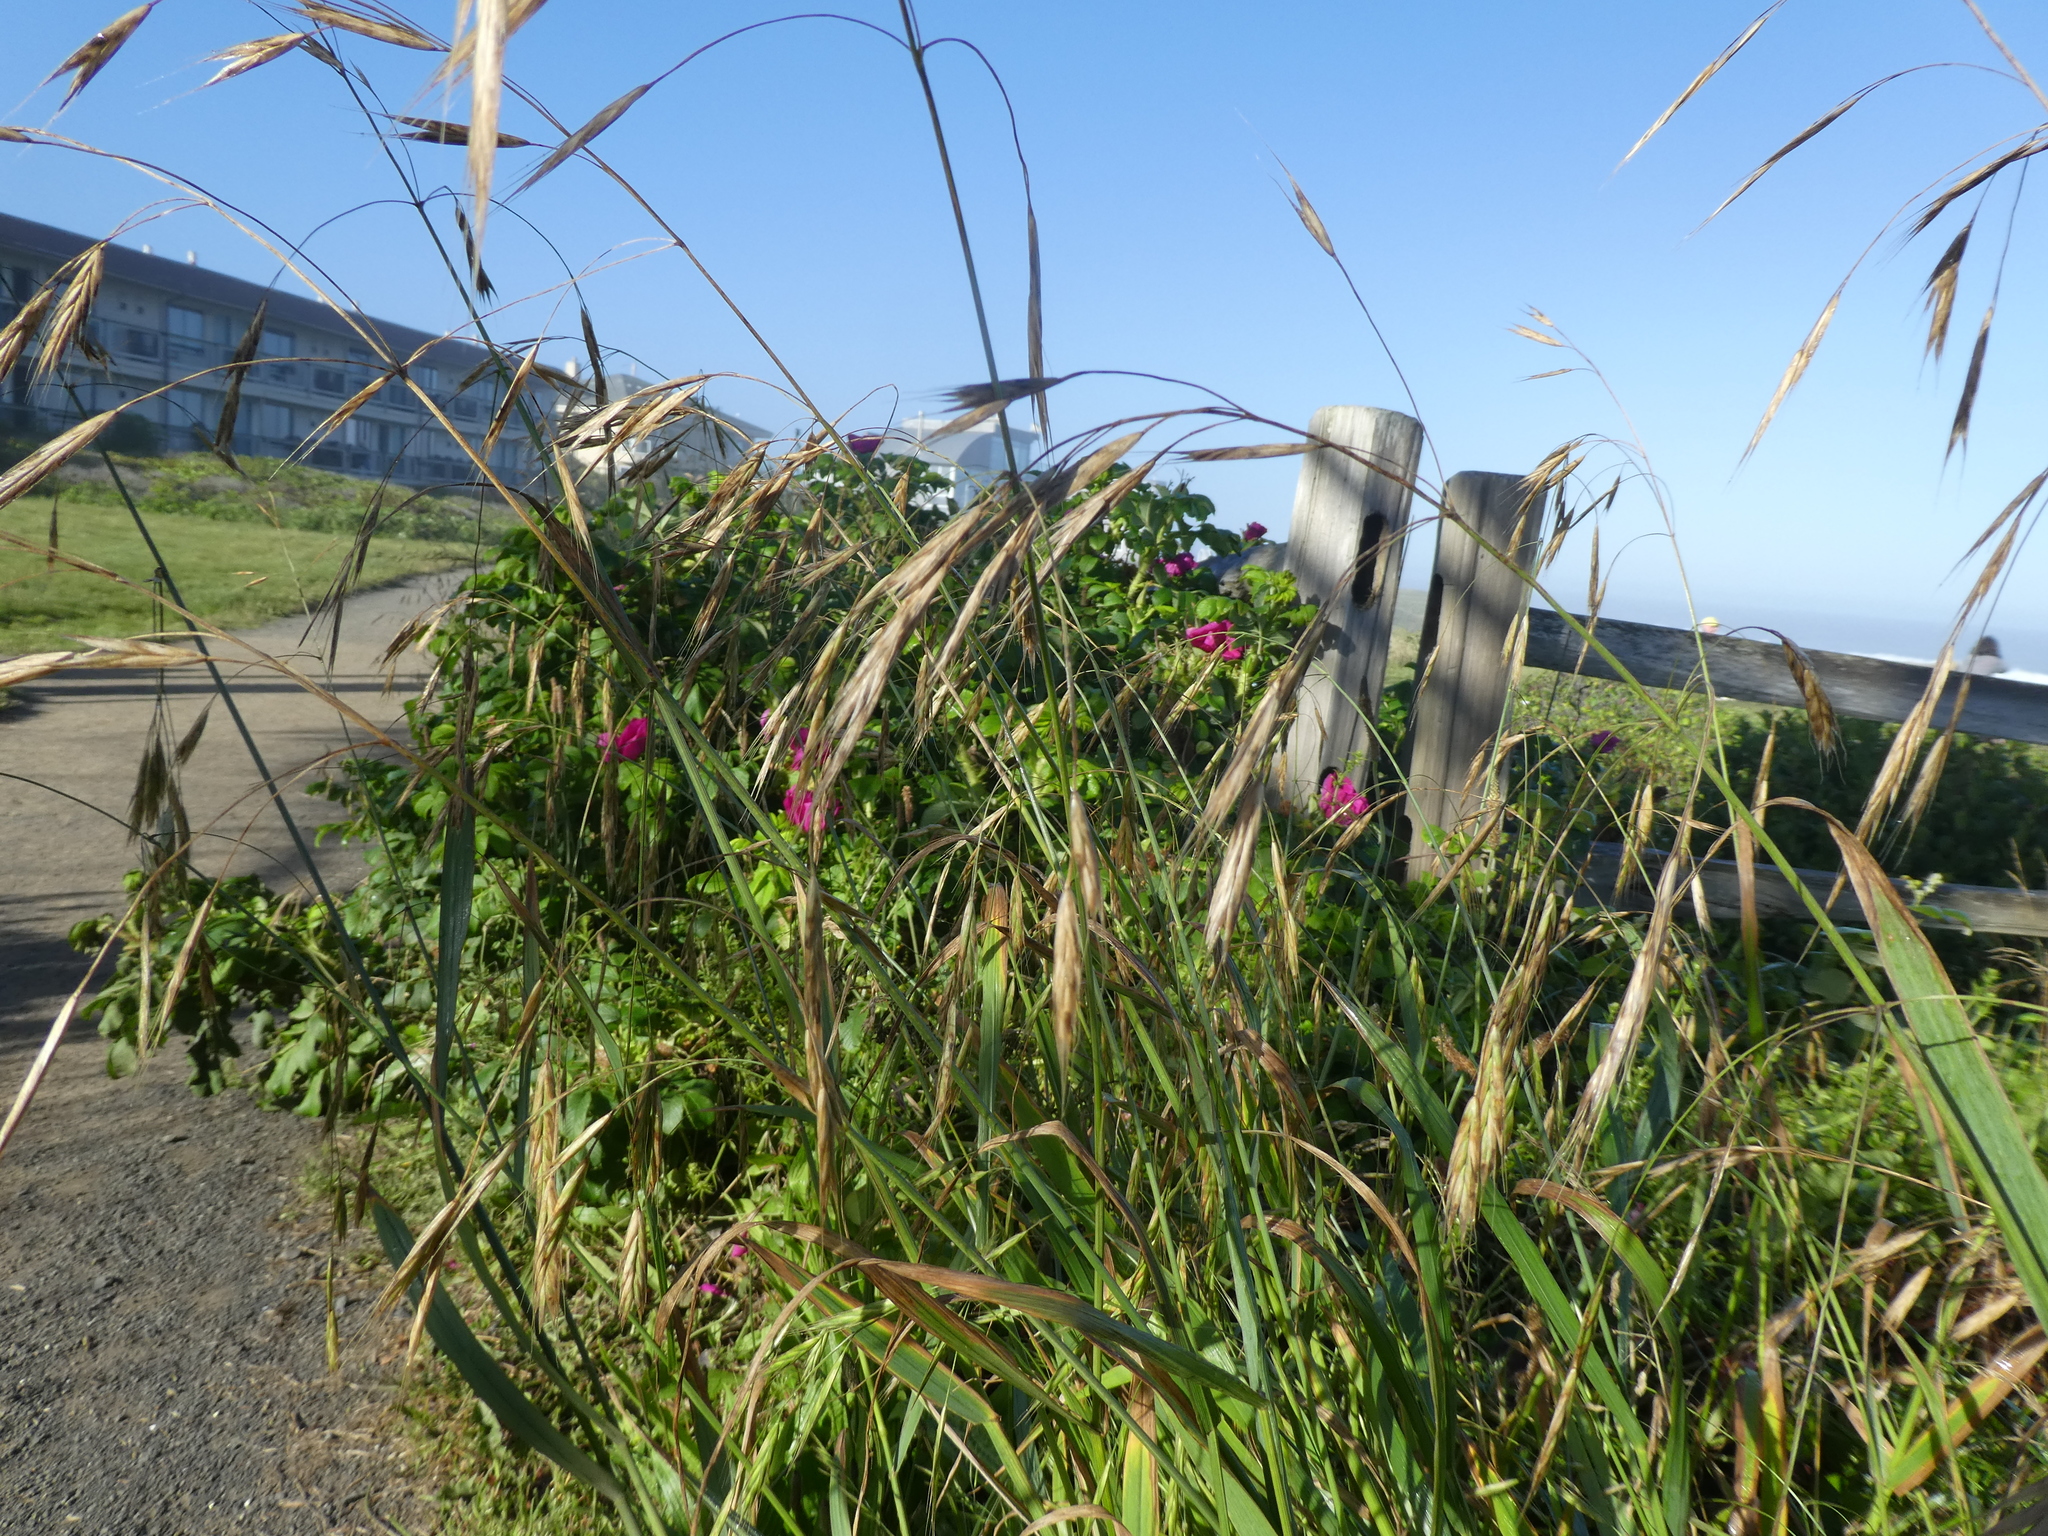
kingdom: Plantae
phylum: Tracheophyta
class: Liliopsida
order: Poales
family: Poaceae
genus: Bromus
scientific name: Bromus sitchensis
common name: Sitka brome
